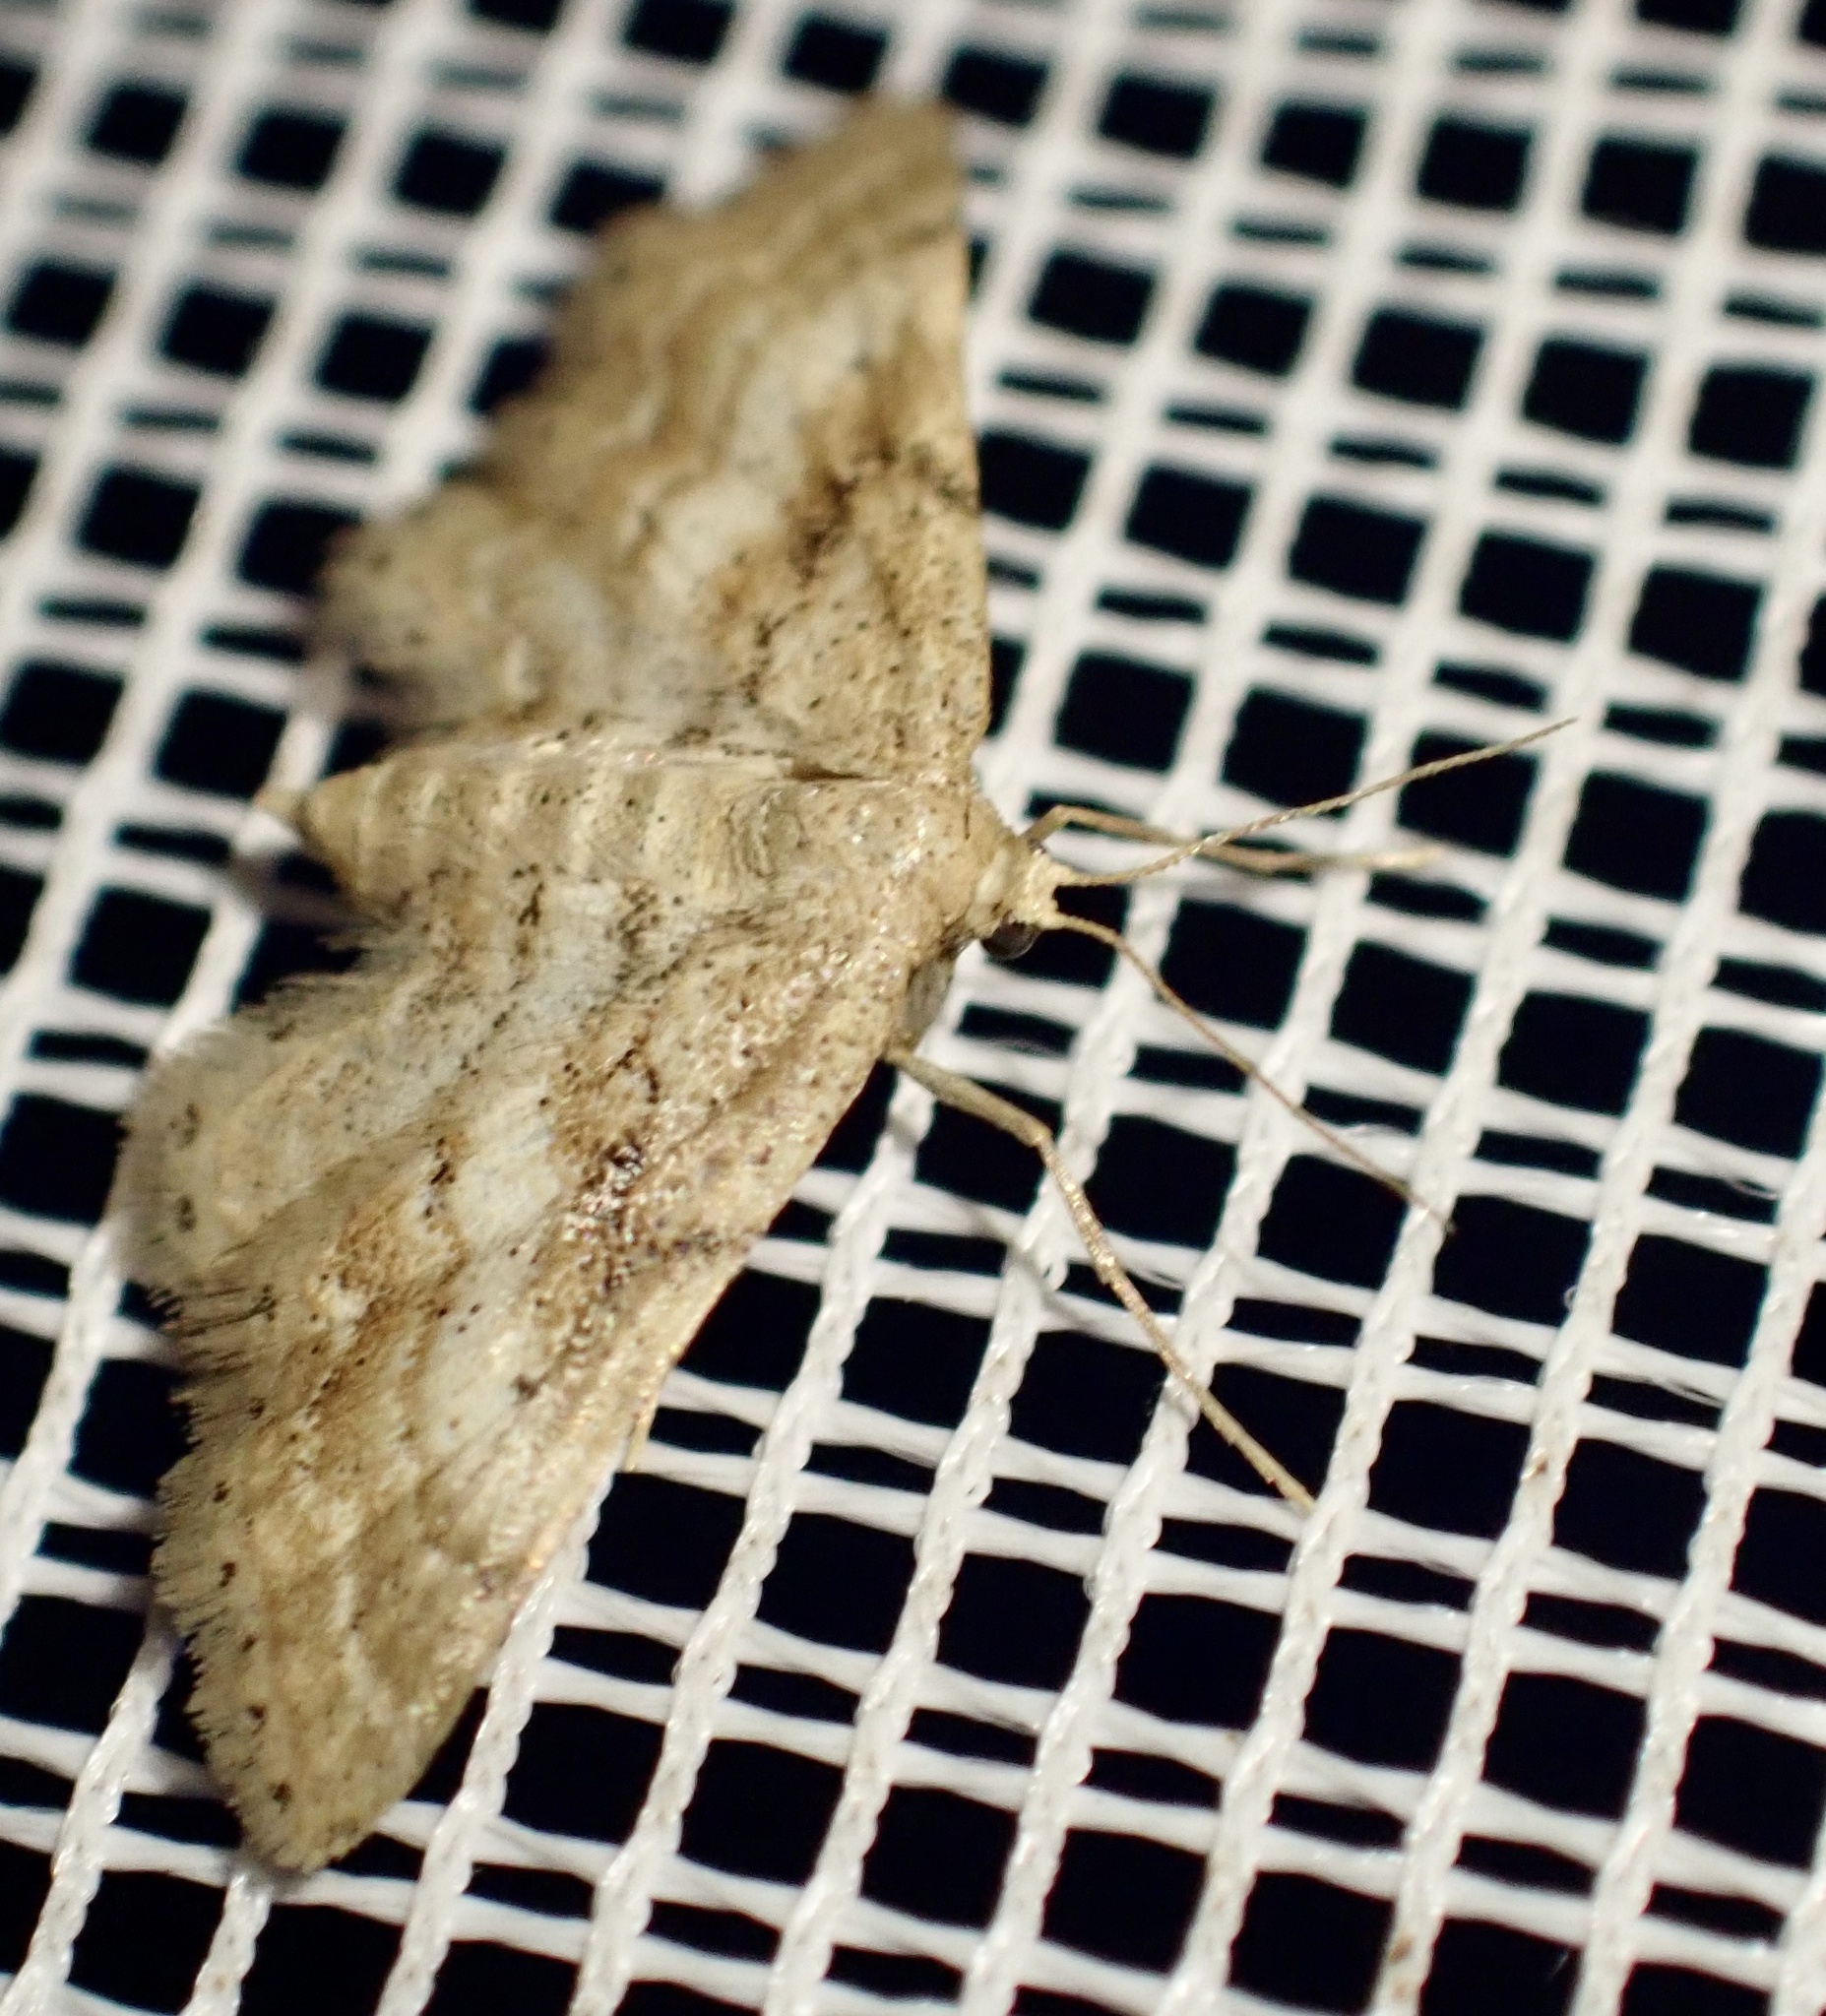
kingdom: Animalia
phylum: Arthropoda
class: Insecta
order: Lepidoptera
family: Geometridae
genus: Idaea
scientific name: Idaea fractilineata
